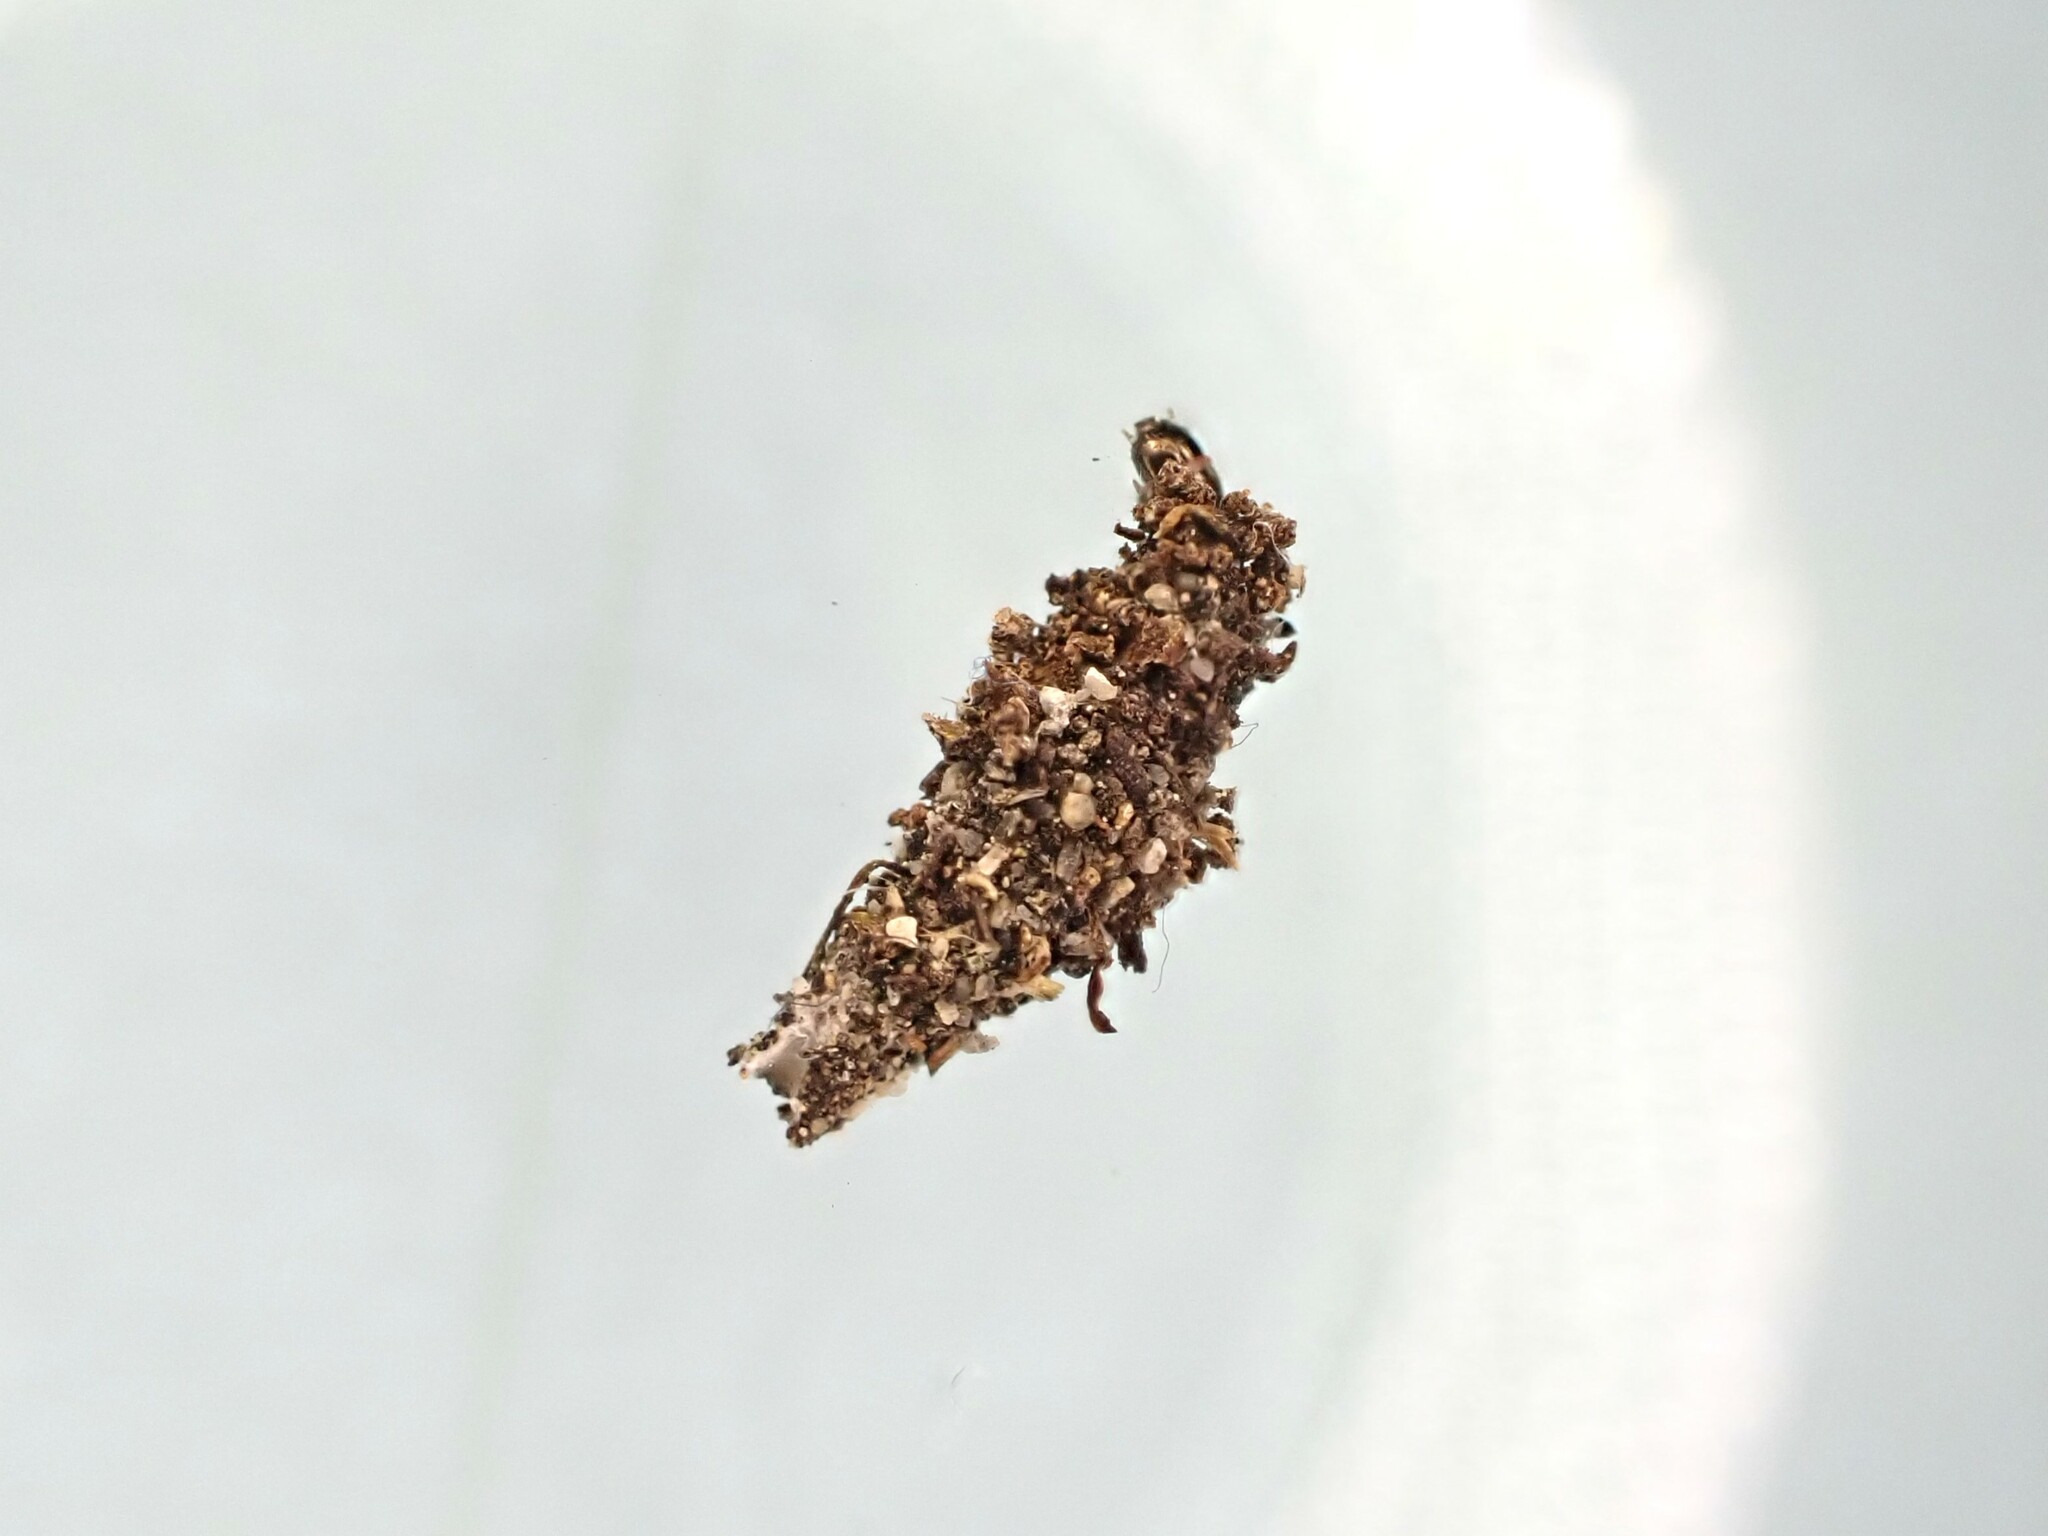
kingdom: Animalia
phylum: Arthropoda
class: Insecta
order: Lepidoptera
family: Psychidae
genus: Cebysa
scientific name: Cebysa leucotelus
